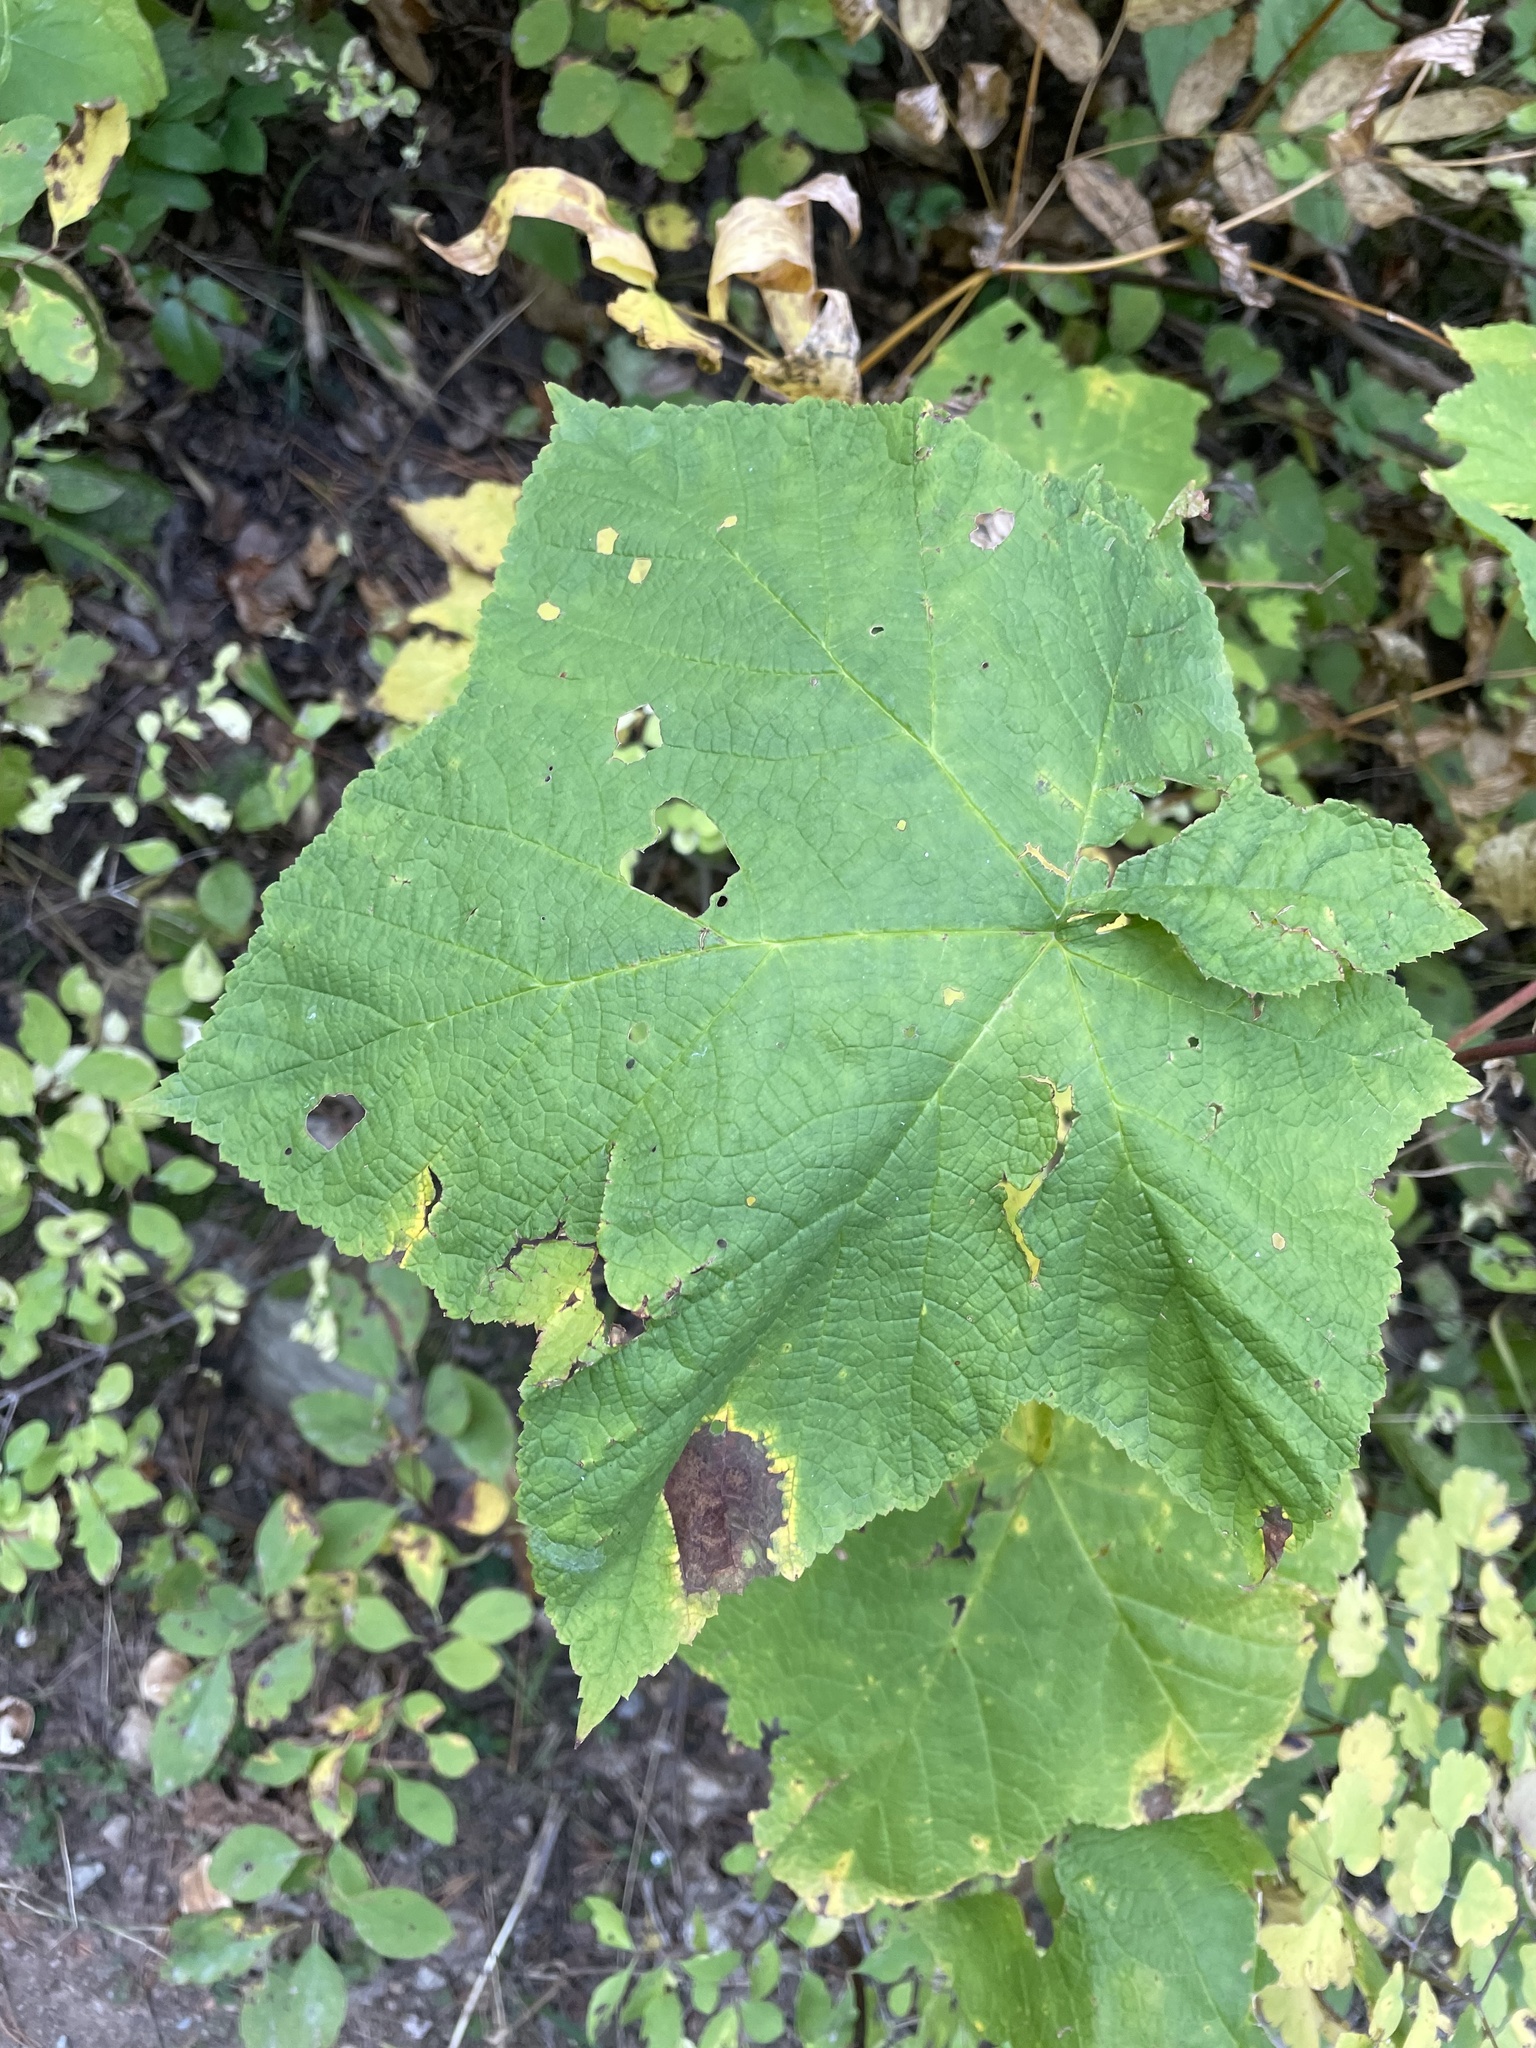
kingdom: Plantae
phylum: Tracheophyta
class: Magnoliopsida
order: Rosales
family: Rosaceae
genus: Rubus
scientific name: Rubus parviflorus
